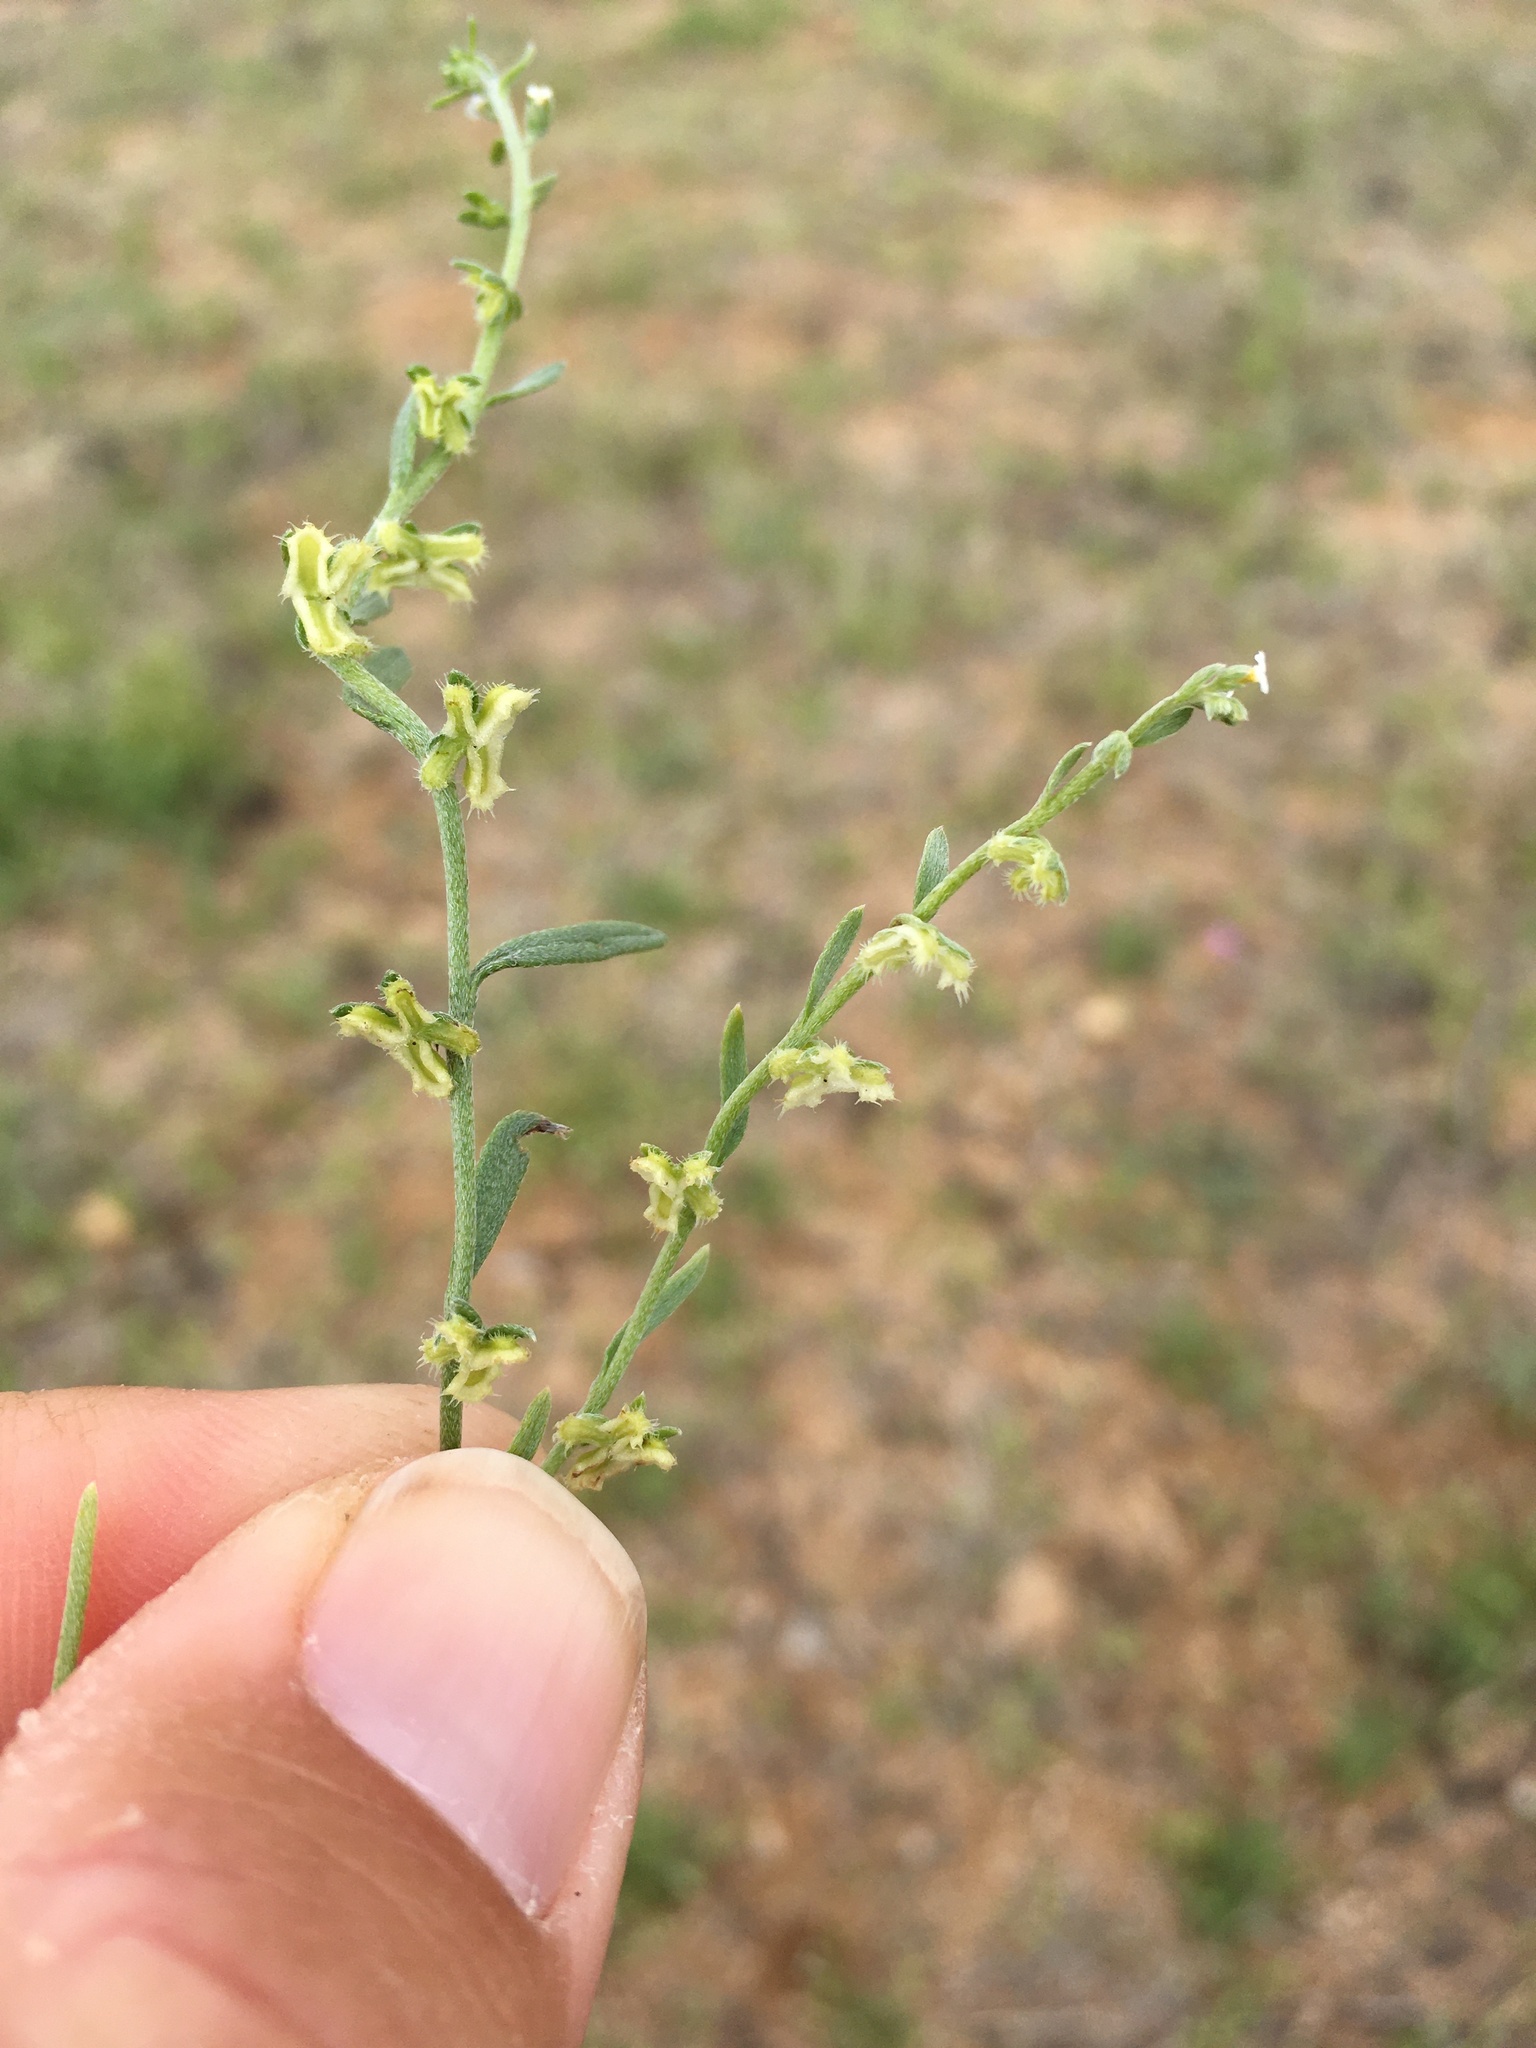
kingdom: Plantae
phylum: Tracheophyta
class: Magnoliopsida
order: Boraginales
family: Boraginaceae
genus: Pectocarya
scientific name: Pectocarya heterocarpa
